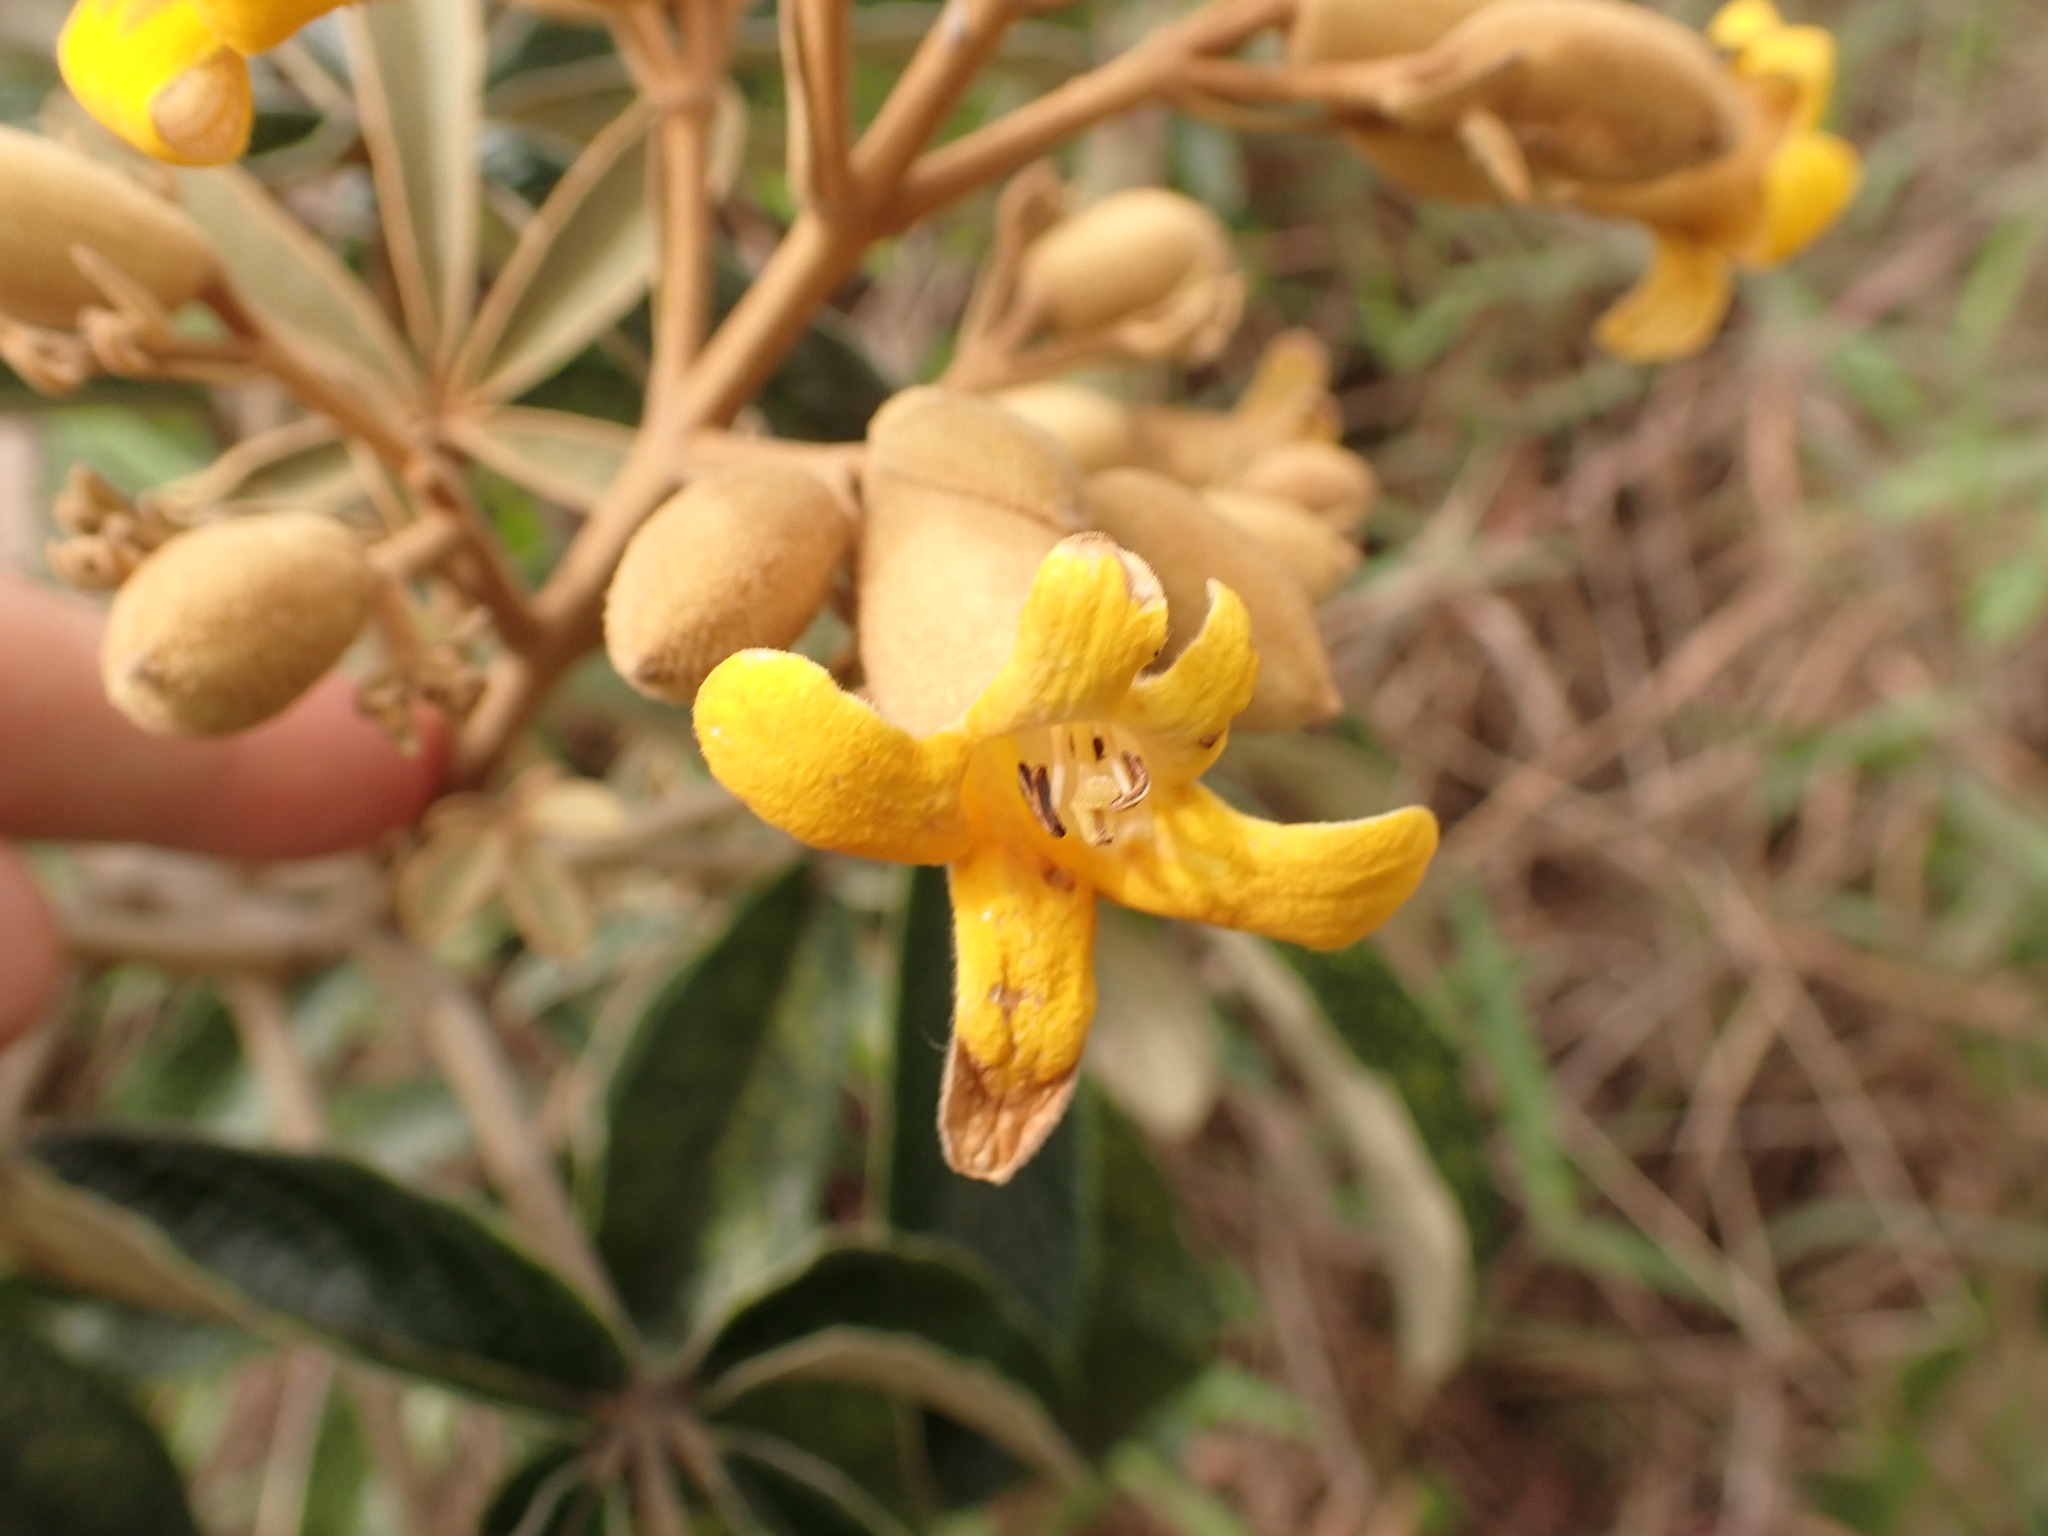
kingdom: Plantae
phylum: Tracheophyta
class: Magnoliopsida
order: Lamiales
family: Bignoniaceae
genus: Zeyheria
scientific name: Zeyheria montana
